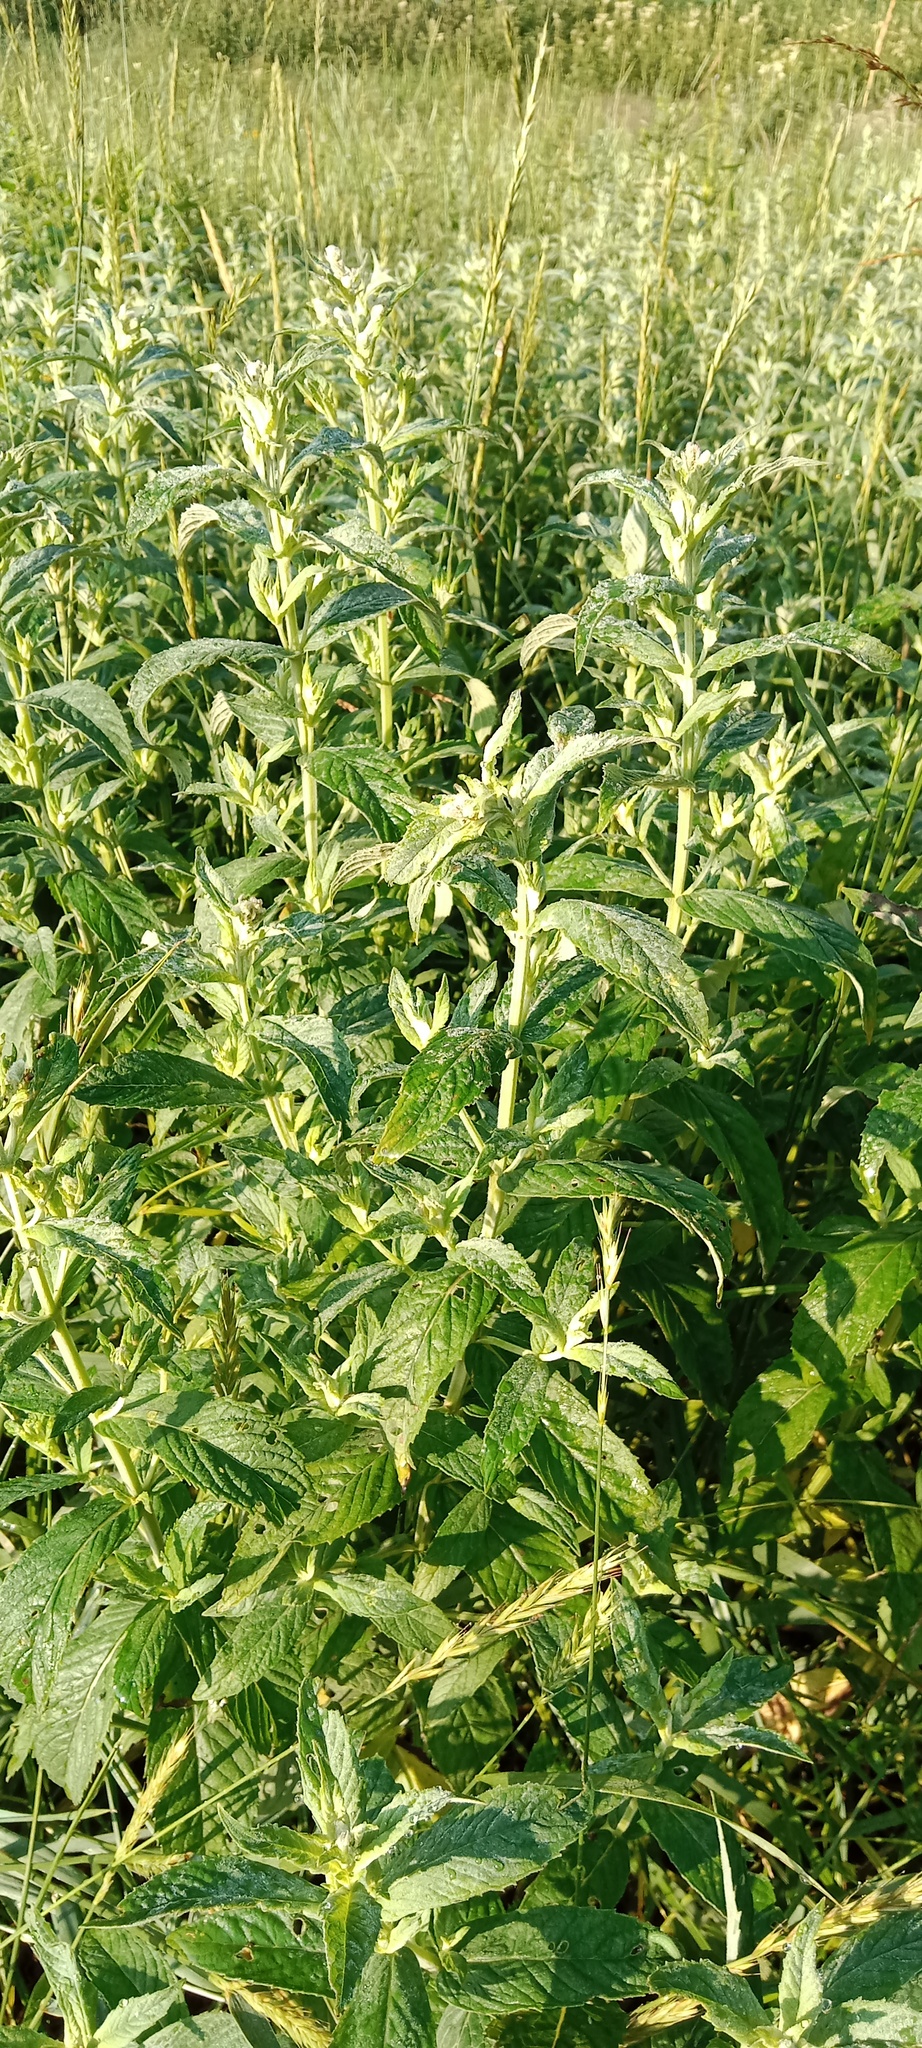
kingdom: Plantae
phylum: Tracheophyta
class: Magnoliopsida
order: Lamiales
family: Lamiaceae
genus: Mentha
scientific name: Mentha longifolia
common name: Horse mint
